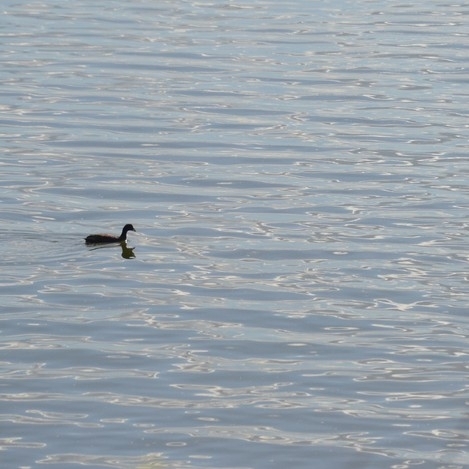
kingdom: Animalia
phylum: Chordata
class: Aves
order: Gruiformes
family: Rallidae
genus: Fulica
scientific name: Fulica armillata
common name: Red-gartered coot
